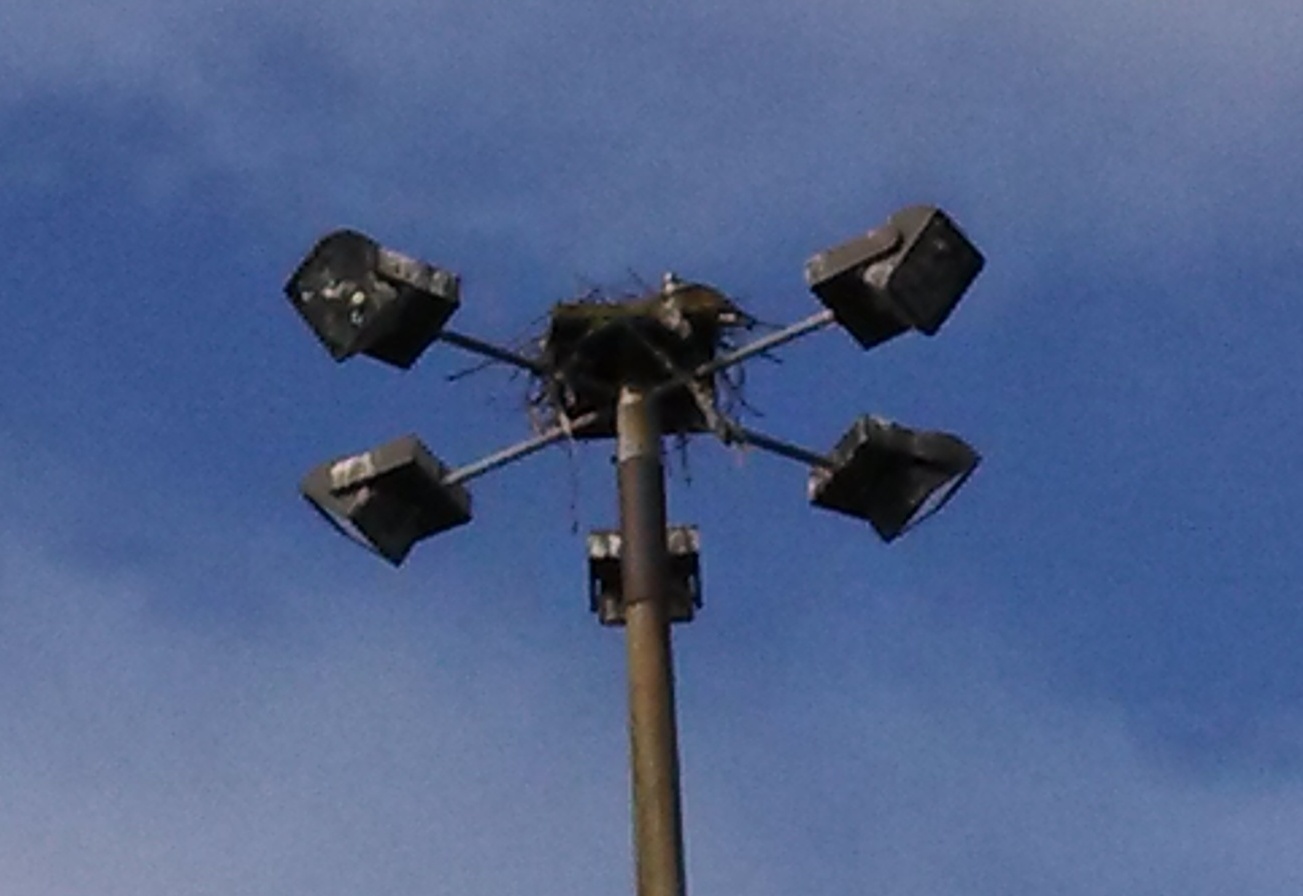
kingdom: Animalia
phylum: Chordata
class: Aves
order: Accipitriformes
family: Pandionidae
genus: Pandion
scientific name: Pandion haliaetus
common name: Osprey
